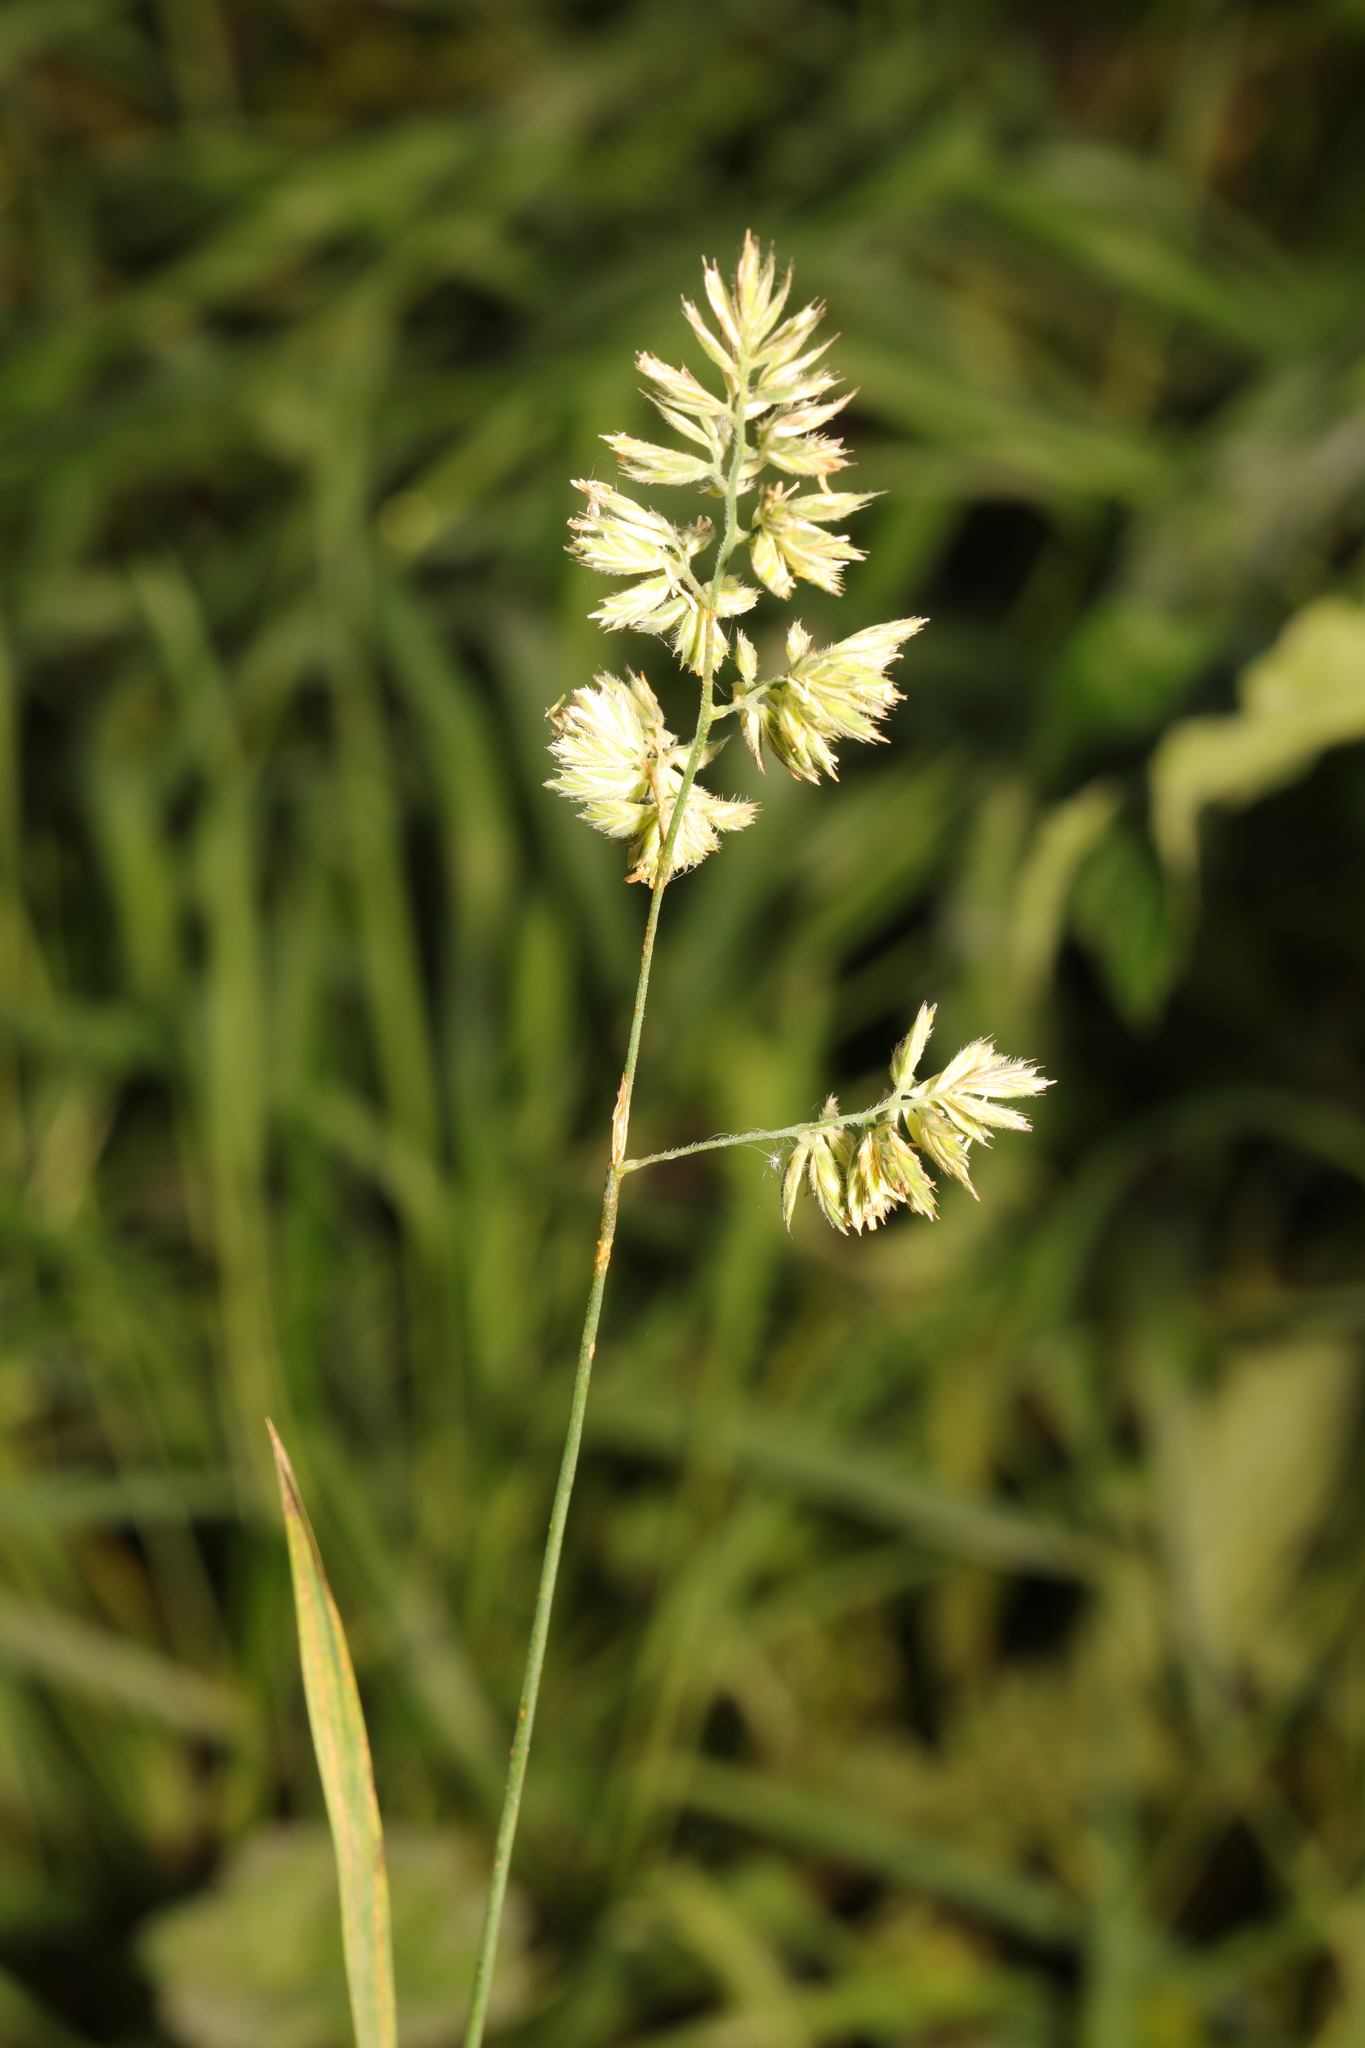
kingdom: Plantae
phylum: Tracheophyta
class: Liliopsida
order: Poales
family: Poaceae
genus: Dactylis
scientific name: Dactylis glomerata
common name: Orchardgrass
